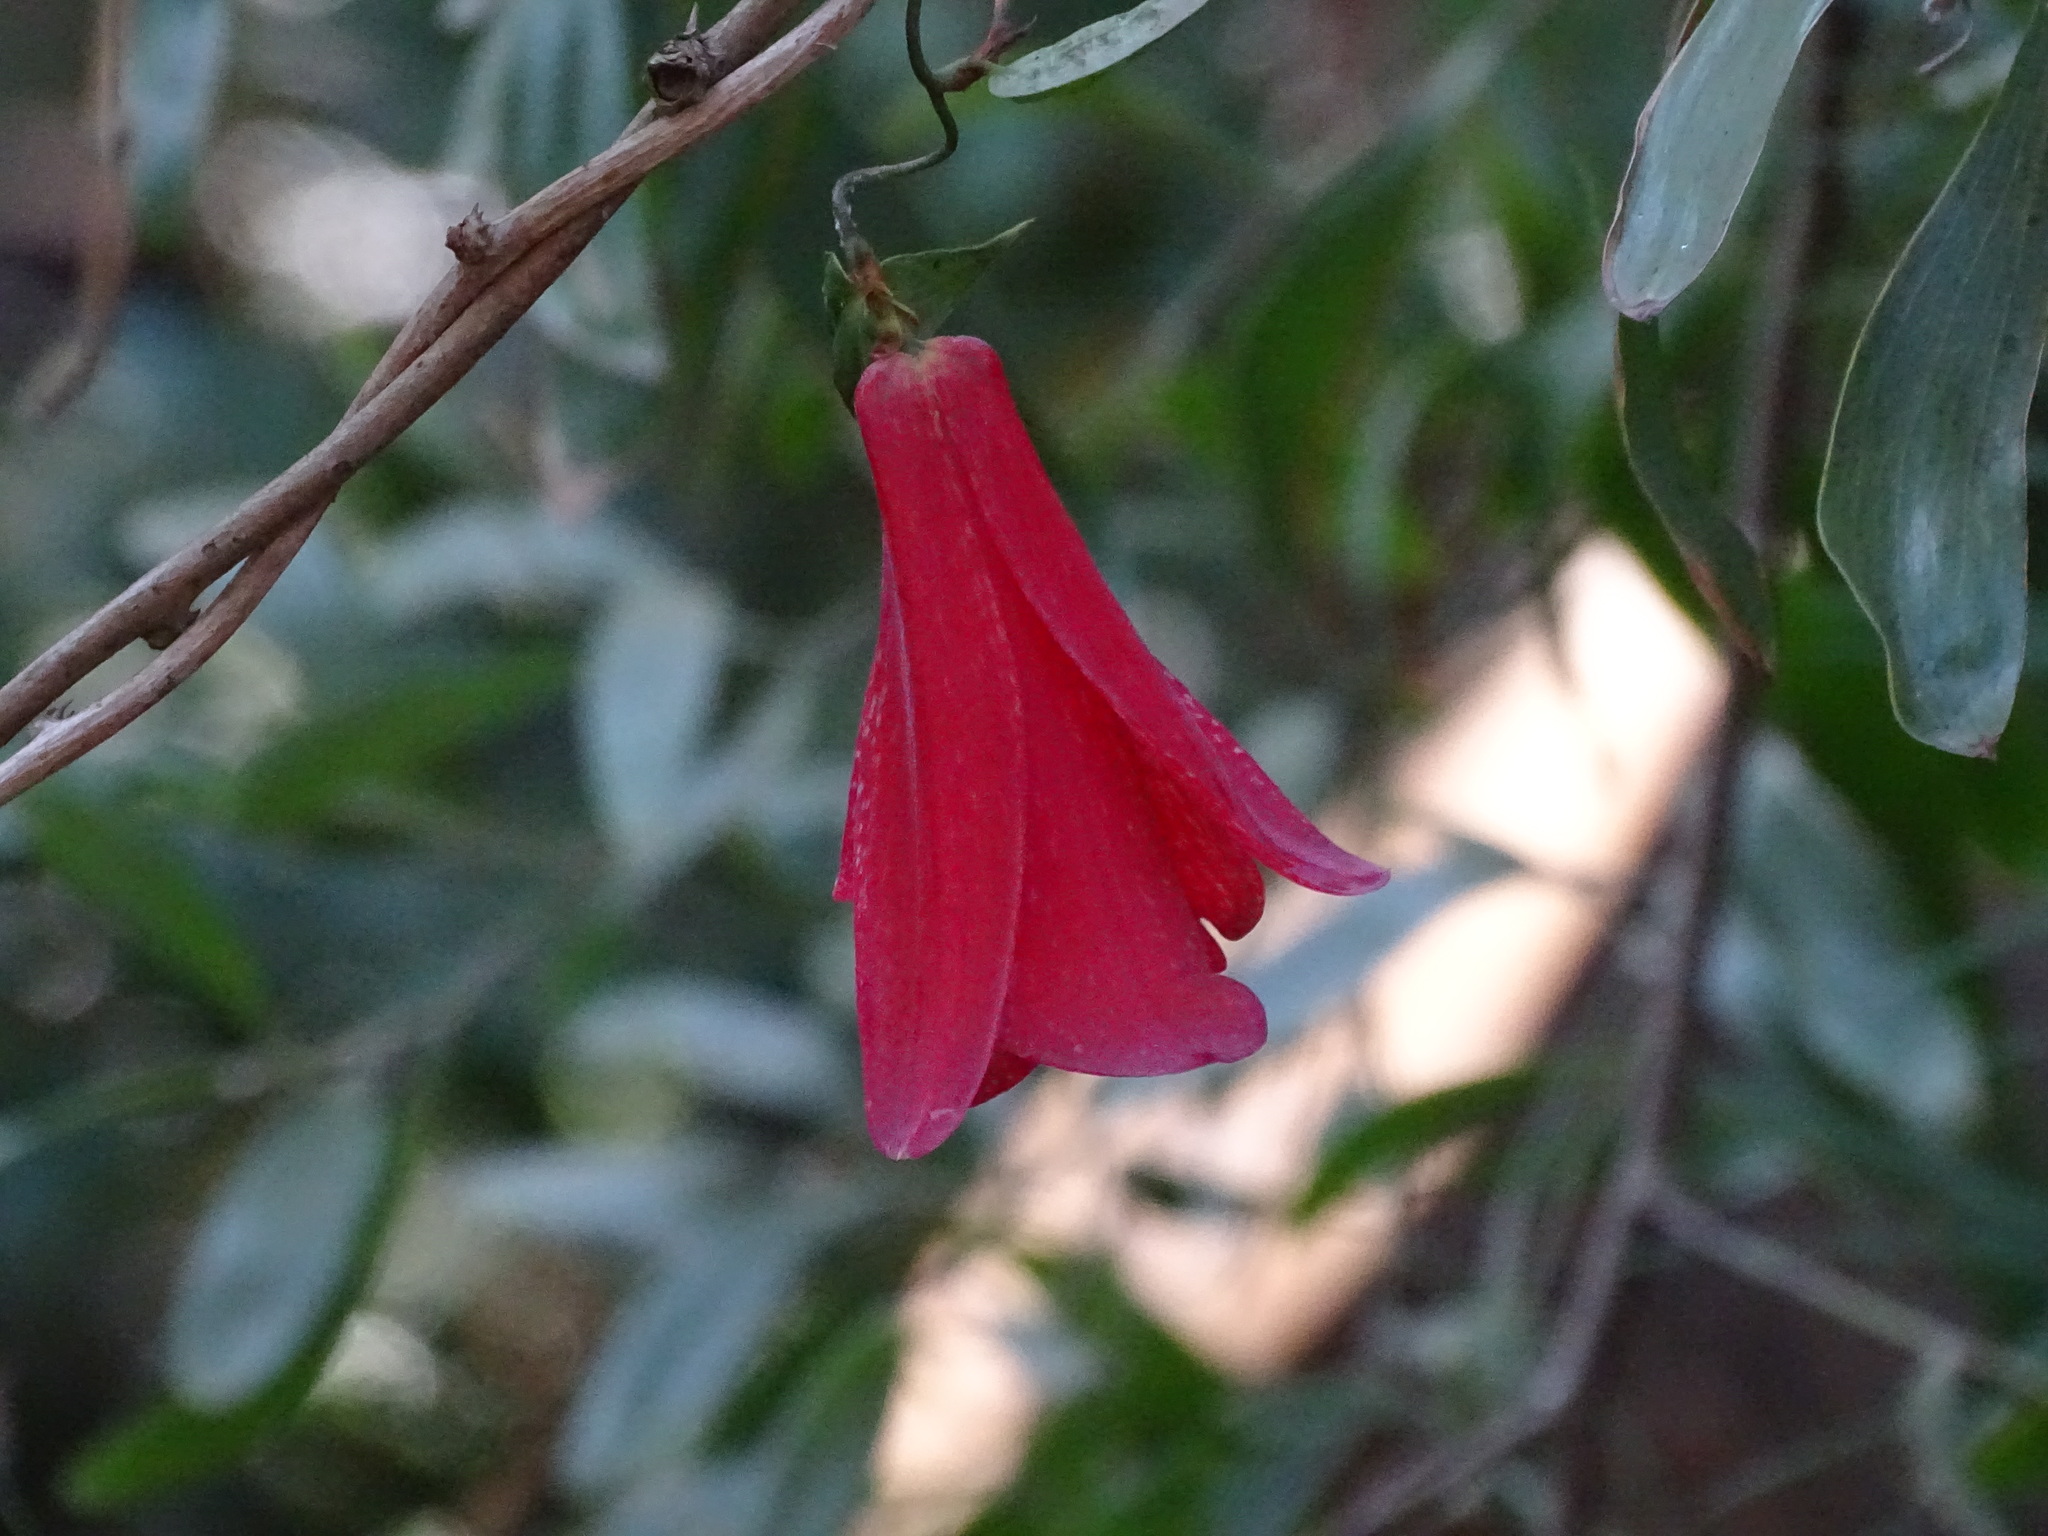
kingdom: Plantae
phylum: Tracheophyta
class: Liliopsida
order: Liliales
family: Philesiaceae
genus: Lapageria
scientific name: Lapageria rosea
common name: Chilean-bellflower
